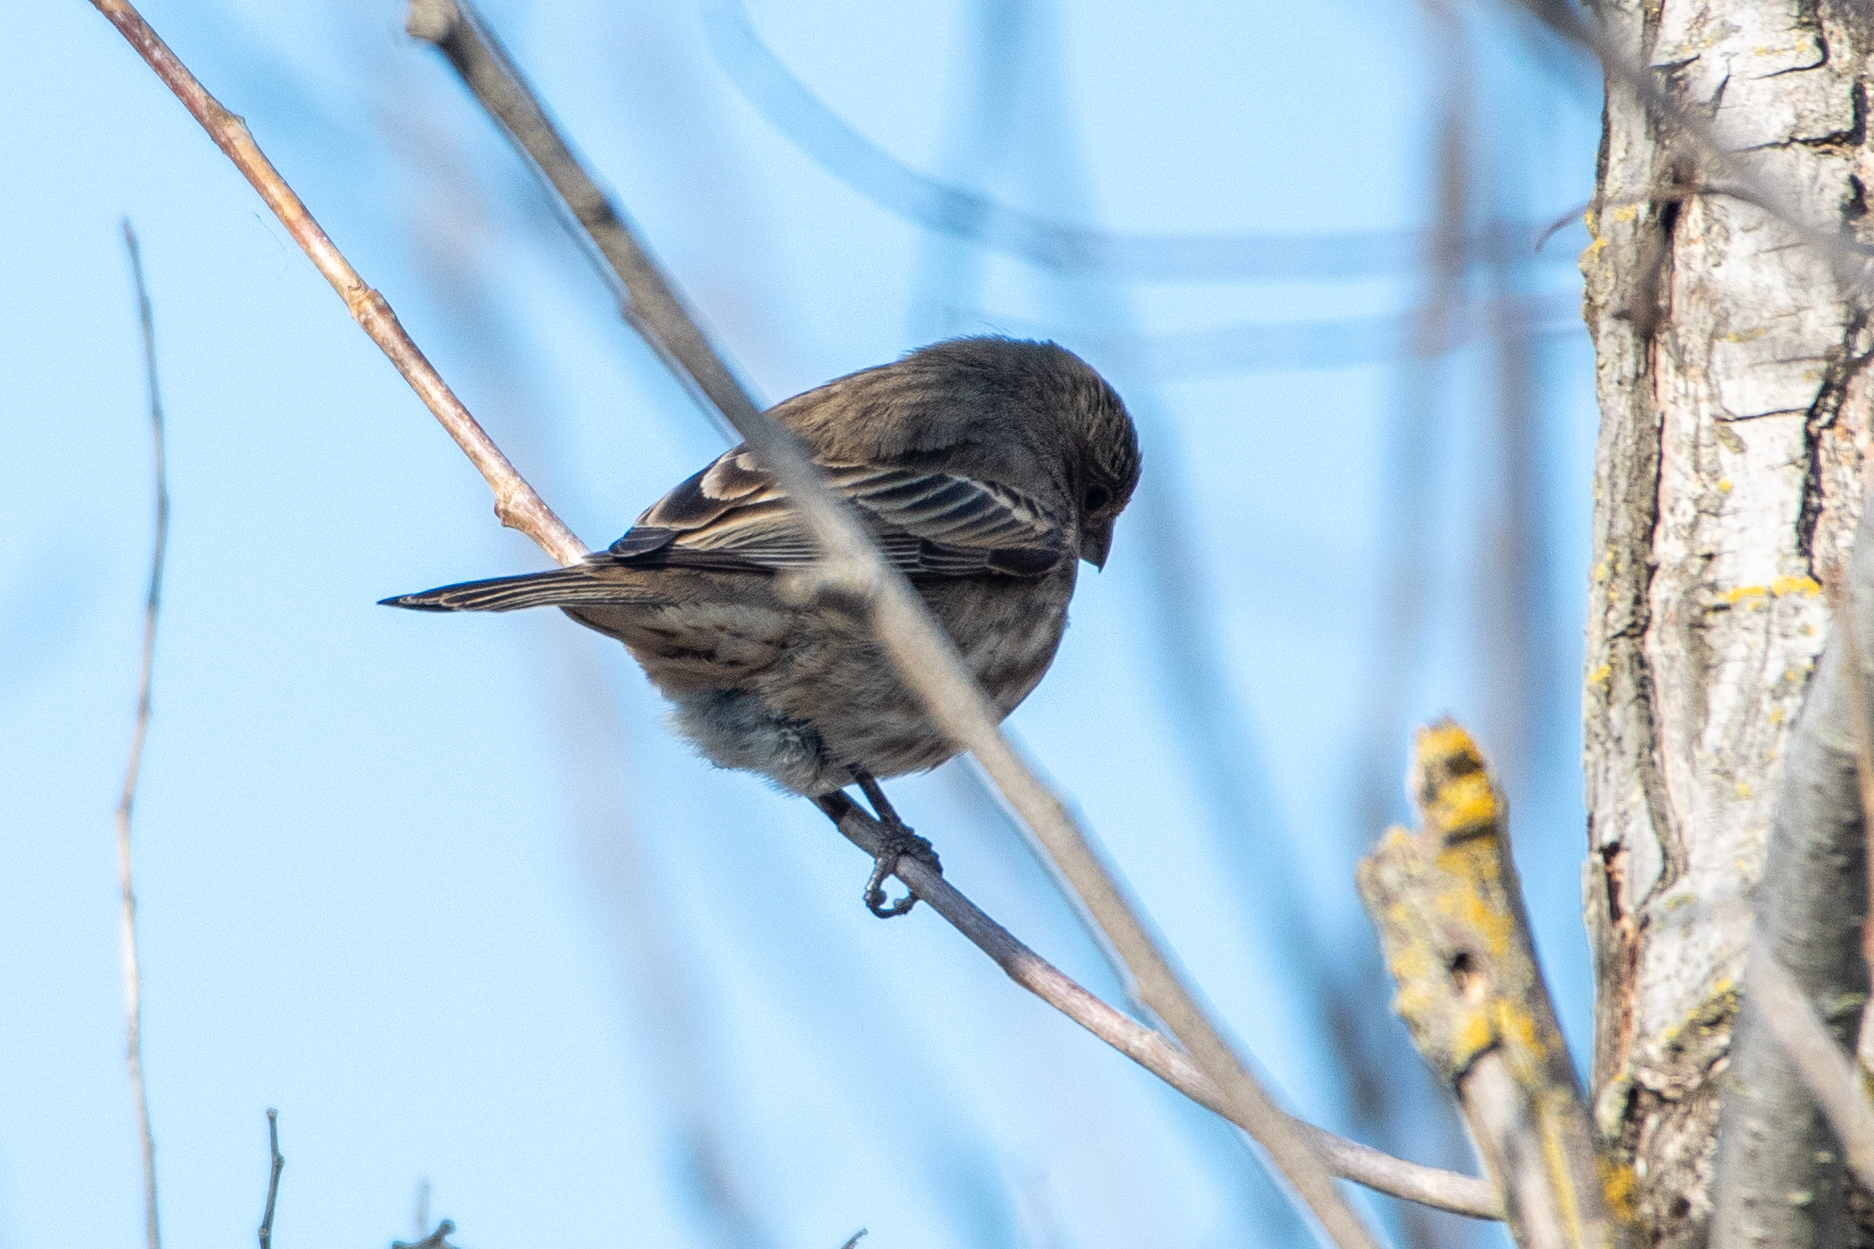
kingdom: Animalia
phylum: Chordata
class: Aves
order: Passeriformes
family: Fringillidae
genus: Haemorhous
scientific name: Haemorhous mexicanus
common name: House finch
